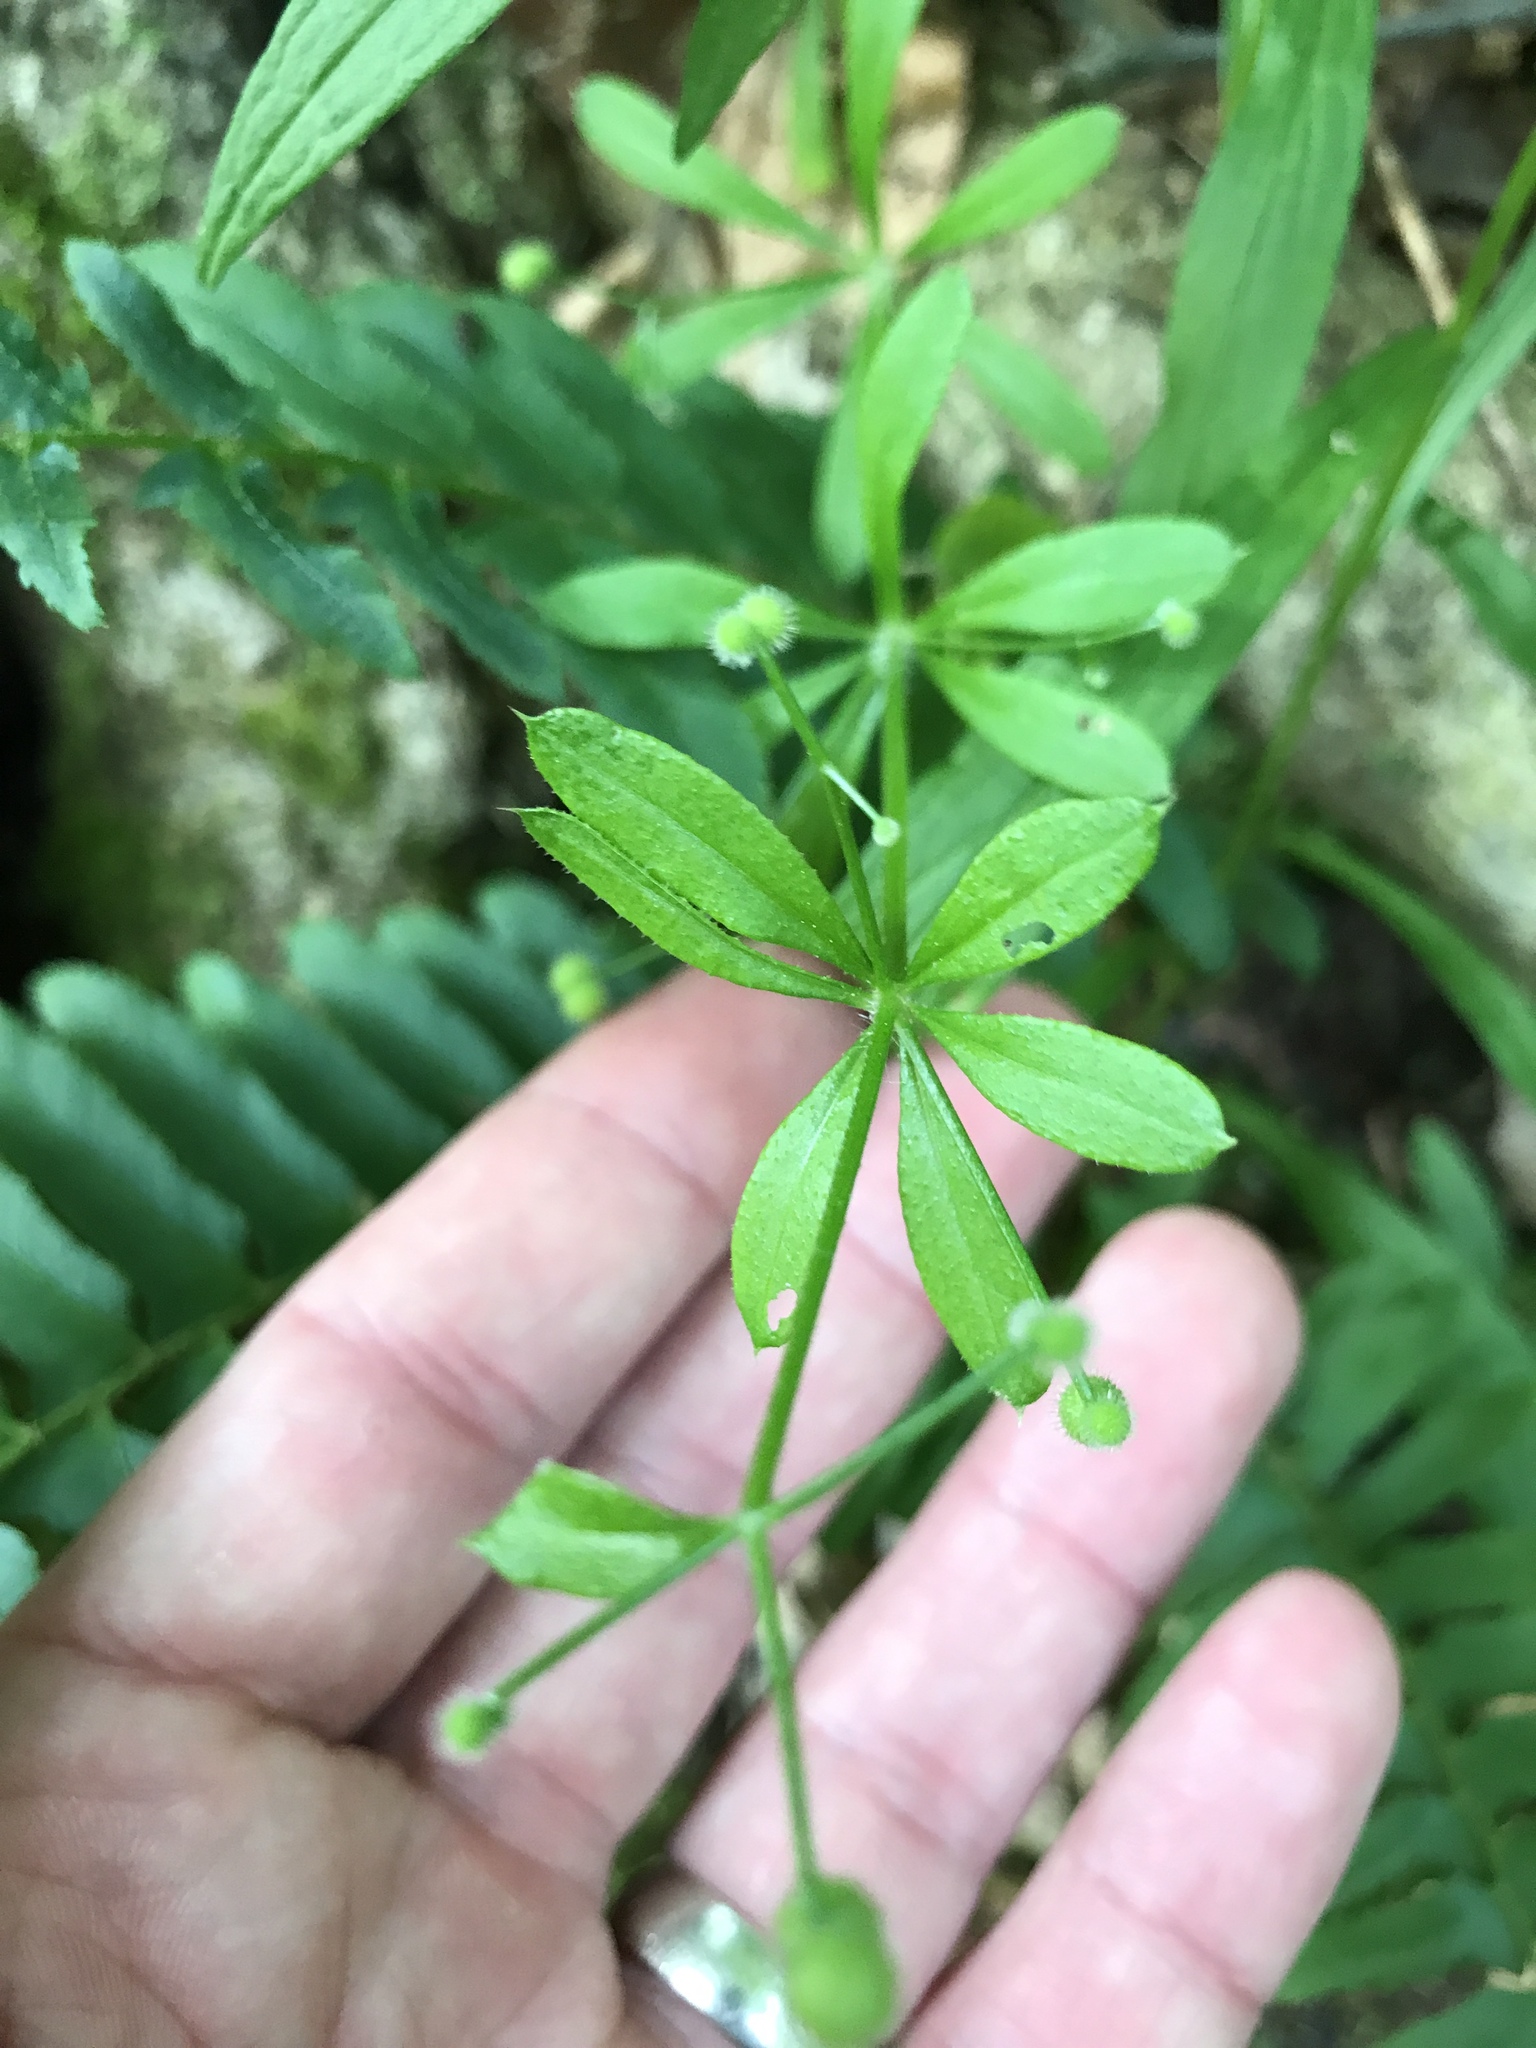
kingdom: Plantae
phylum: Tracheophyta
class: Magnoliopsida
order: Gentianales
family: Rubiaceae
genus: Galium
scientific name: Galium aparine
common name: Cleavers
